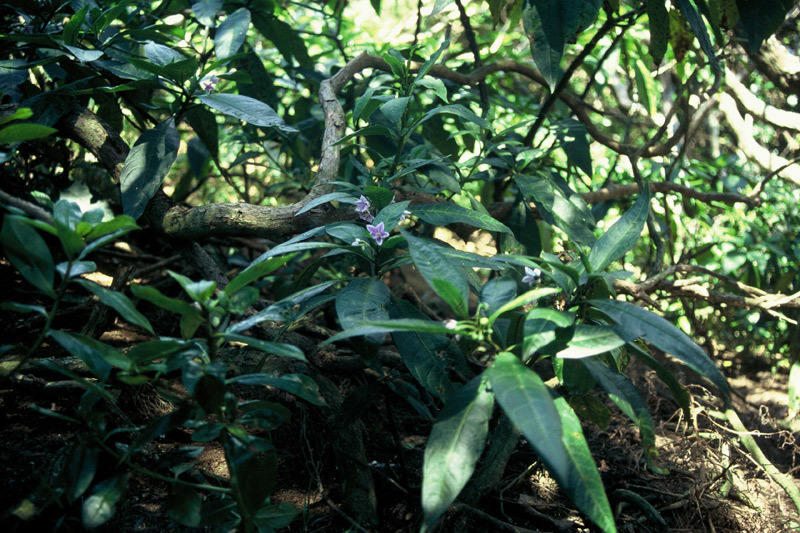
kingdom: Plantae
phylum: Tracheophyta
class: Magnoliopsida
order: Solanales
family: Solanaceae
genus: Solanum
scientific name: Solanum aviculare
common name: New zealand nightshade
